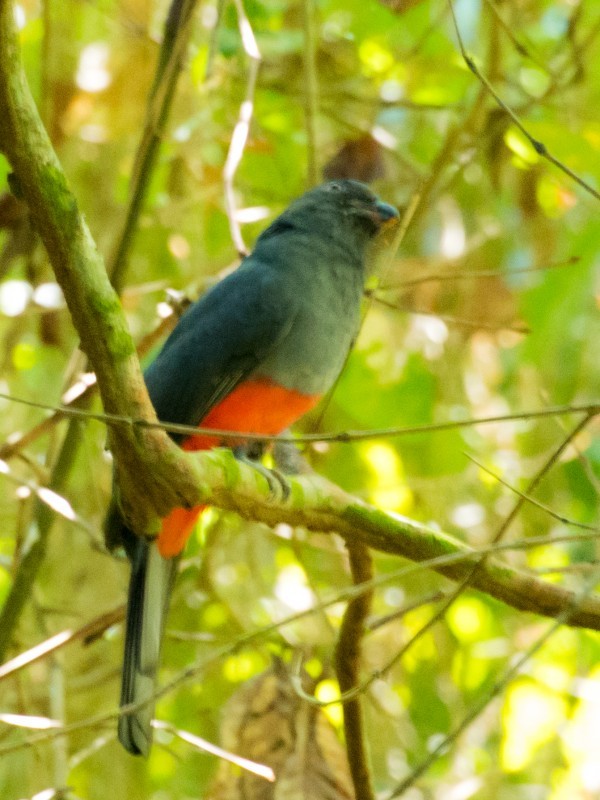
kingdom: Animalia
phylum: Chordata
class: Aves
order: Trogoniformes
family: Trogonidae
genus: Trogon
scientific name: Trogon massena
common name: Slaty-tailed trogon
